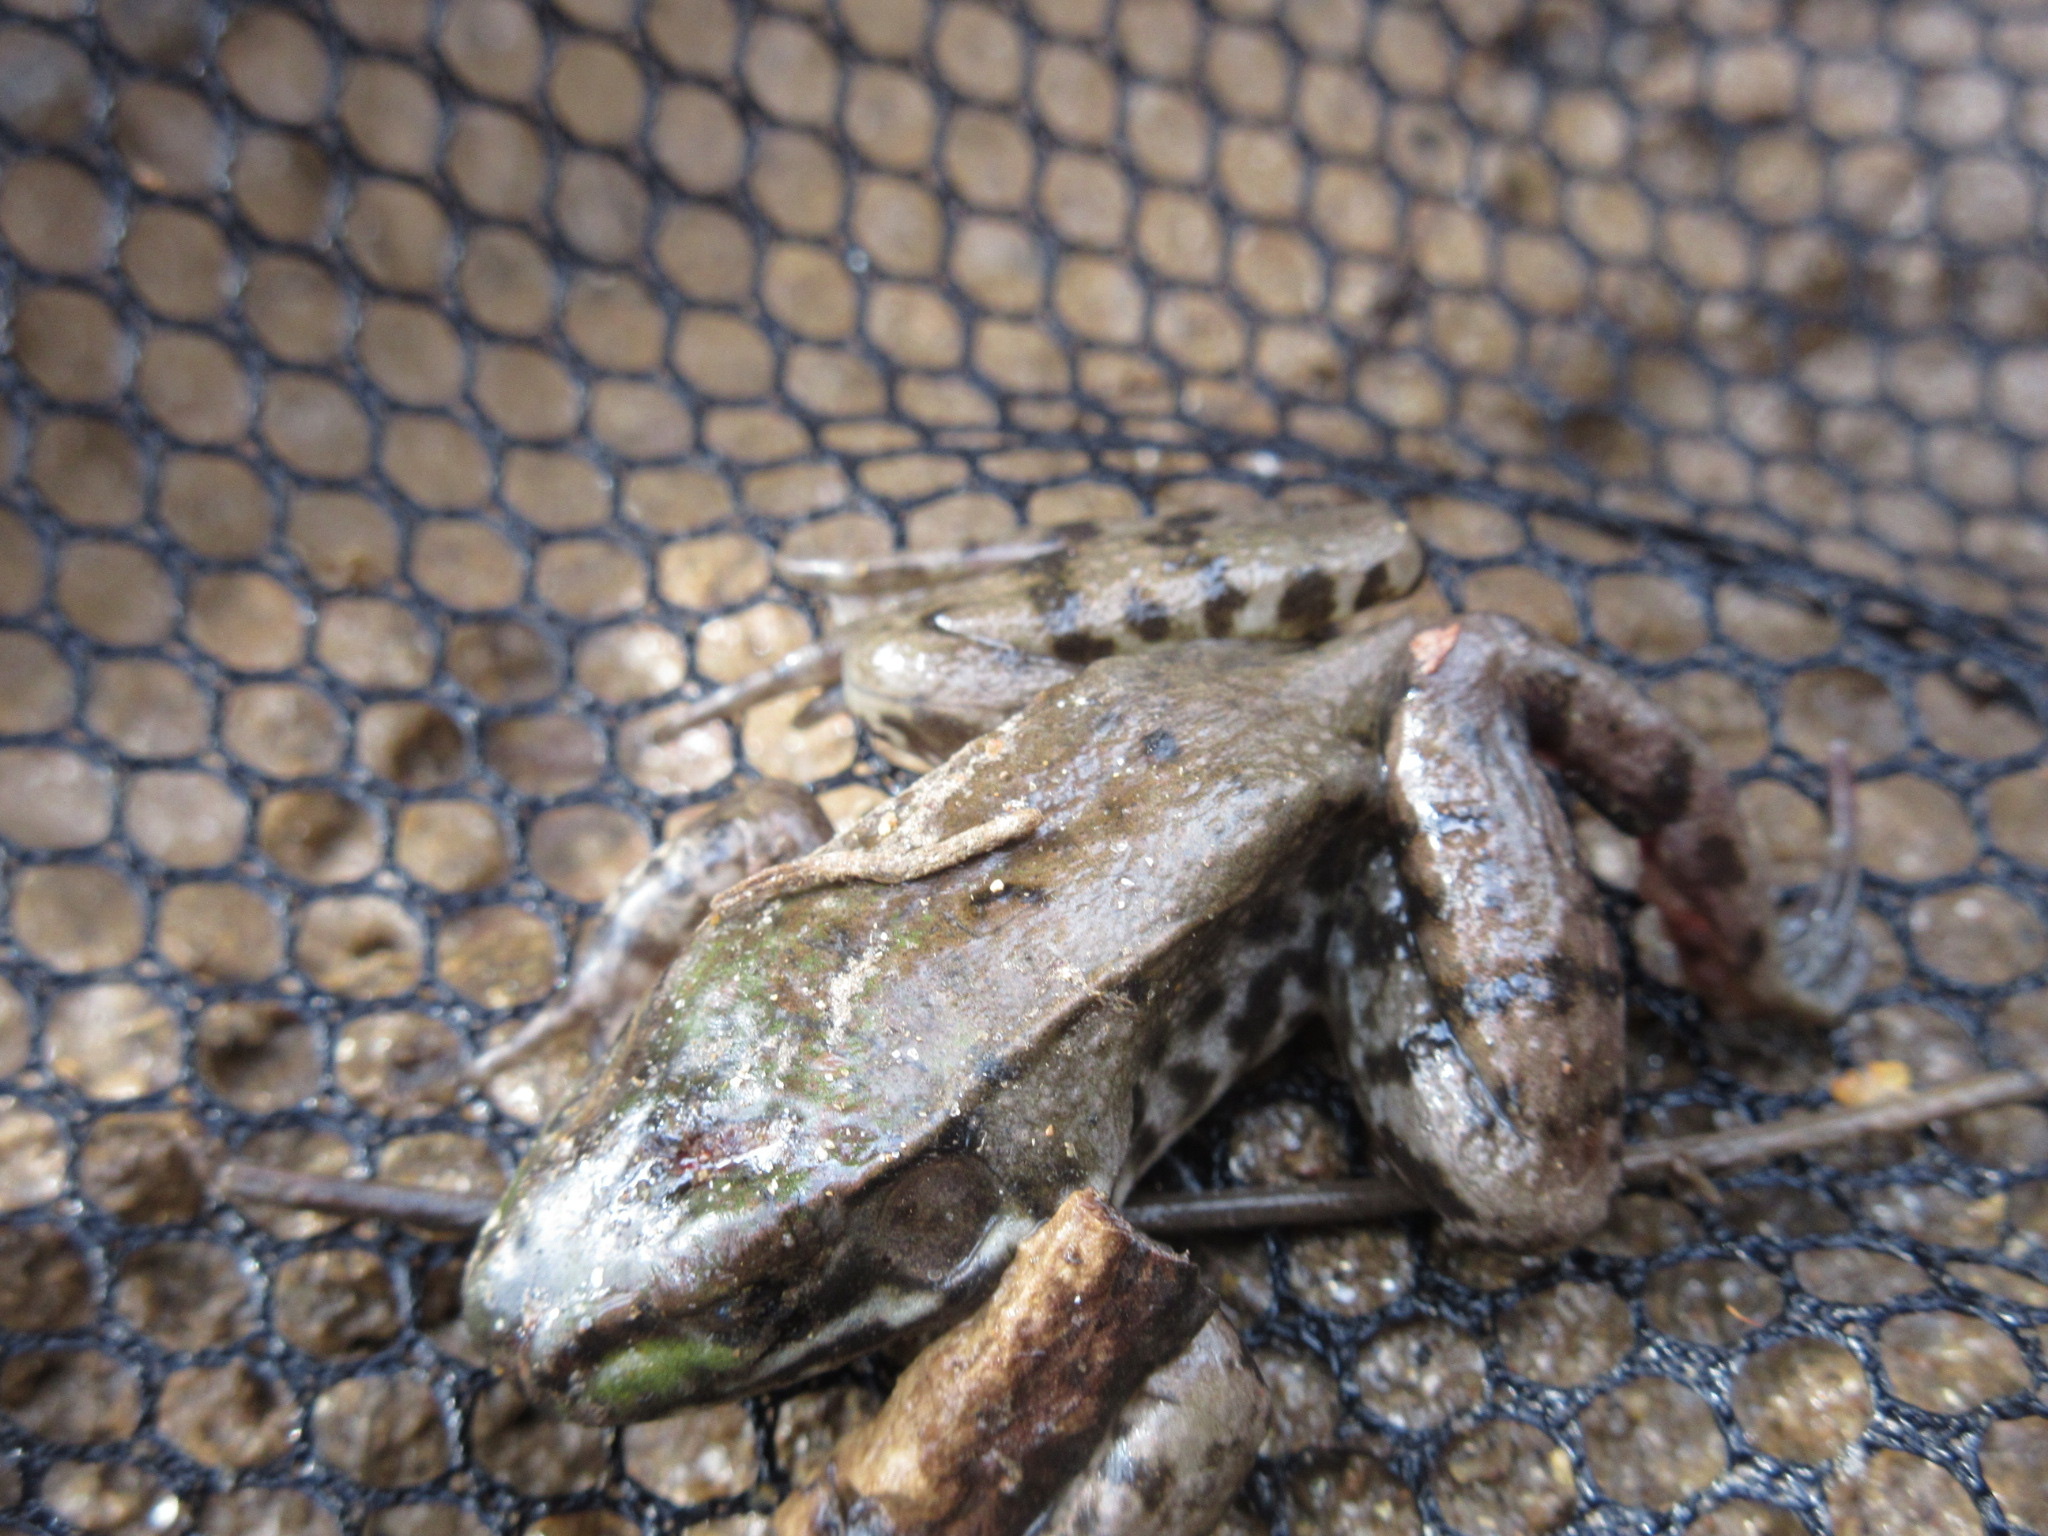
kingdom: Animalia
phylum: Chordata
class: Amphibia
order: Anura
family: Ranidae
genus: Lithobates
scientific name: Lithobates clamitans
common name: Green frog
